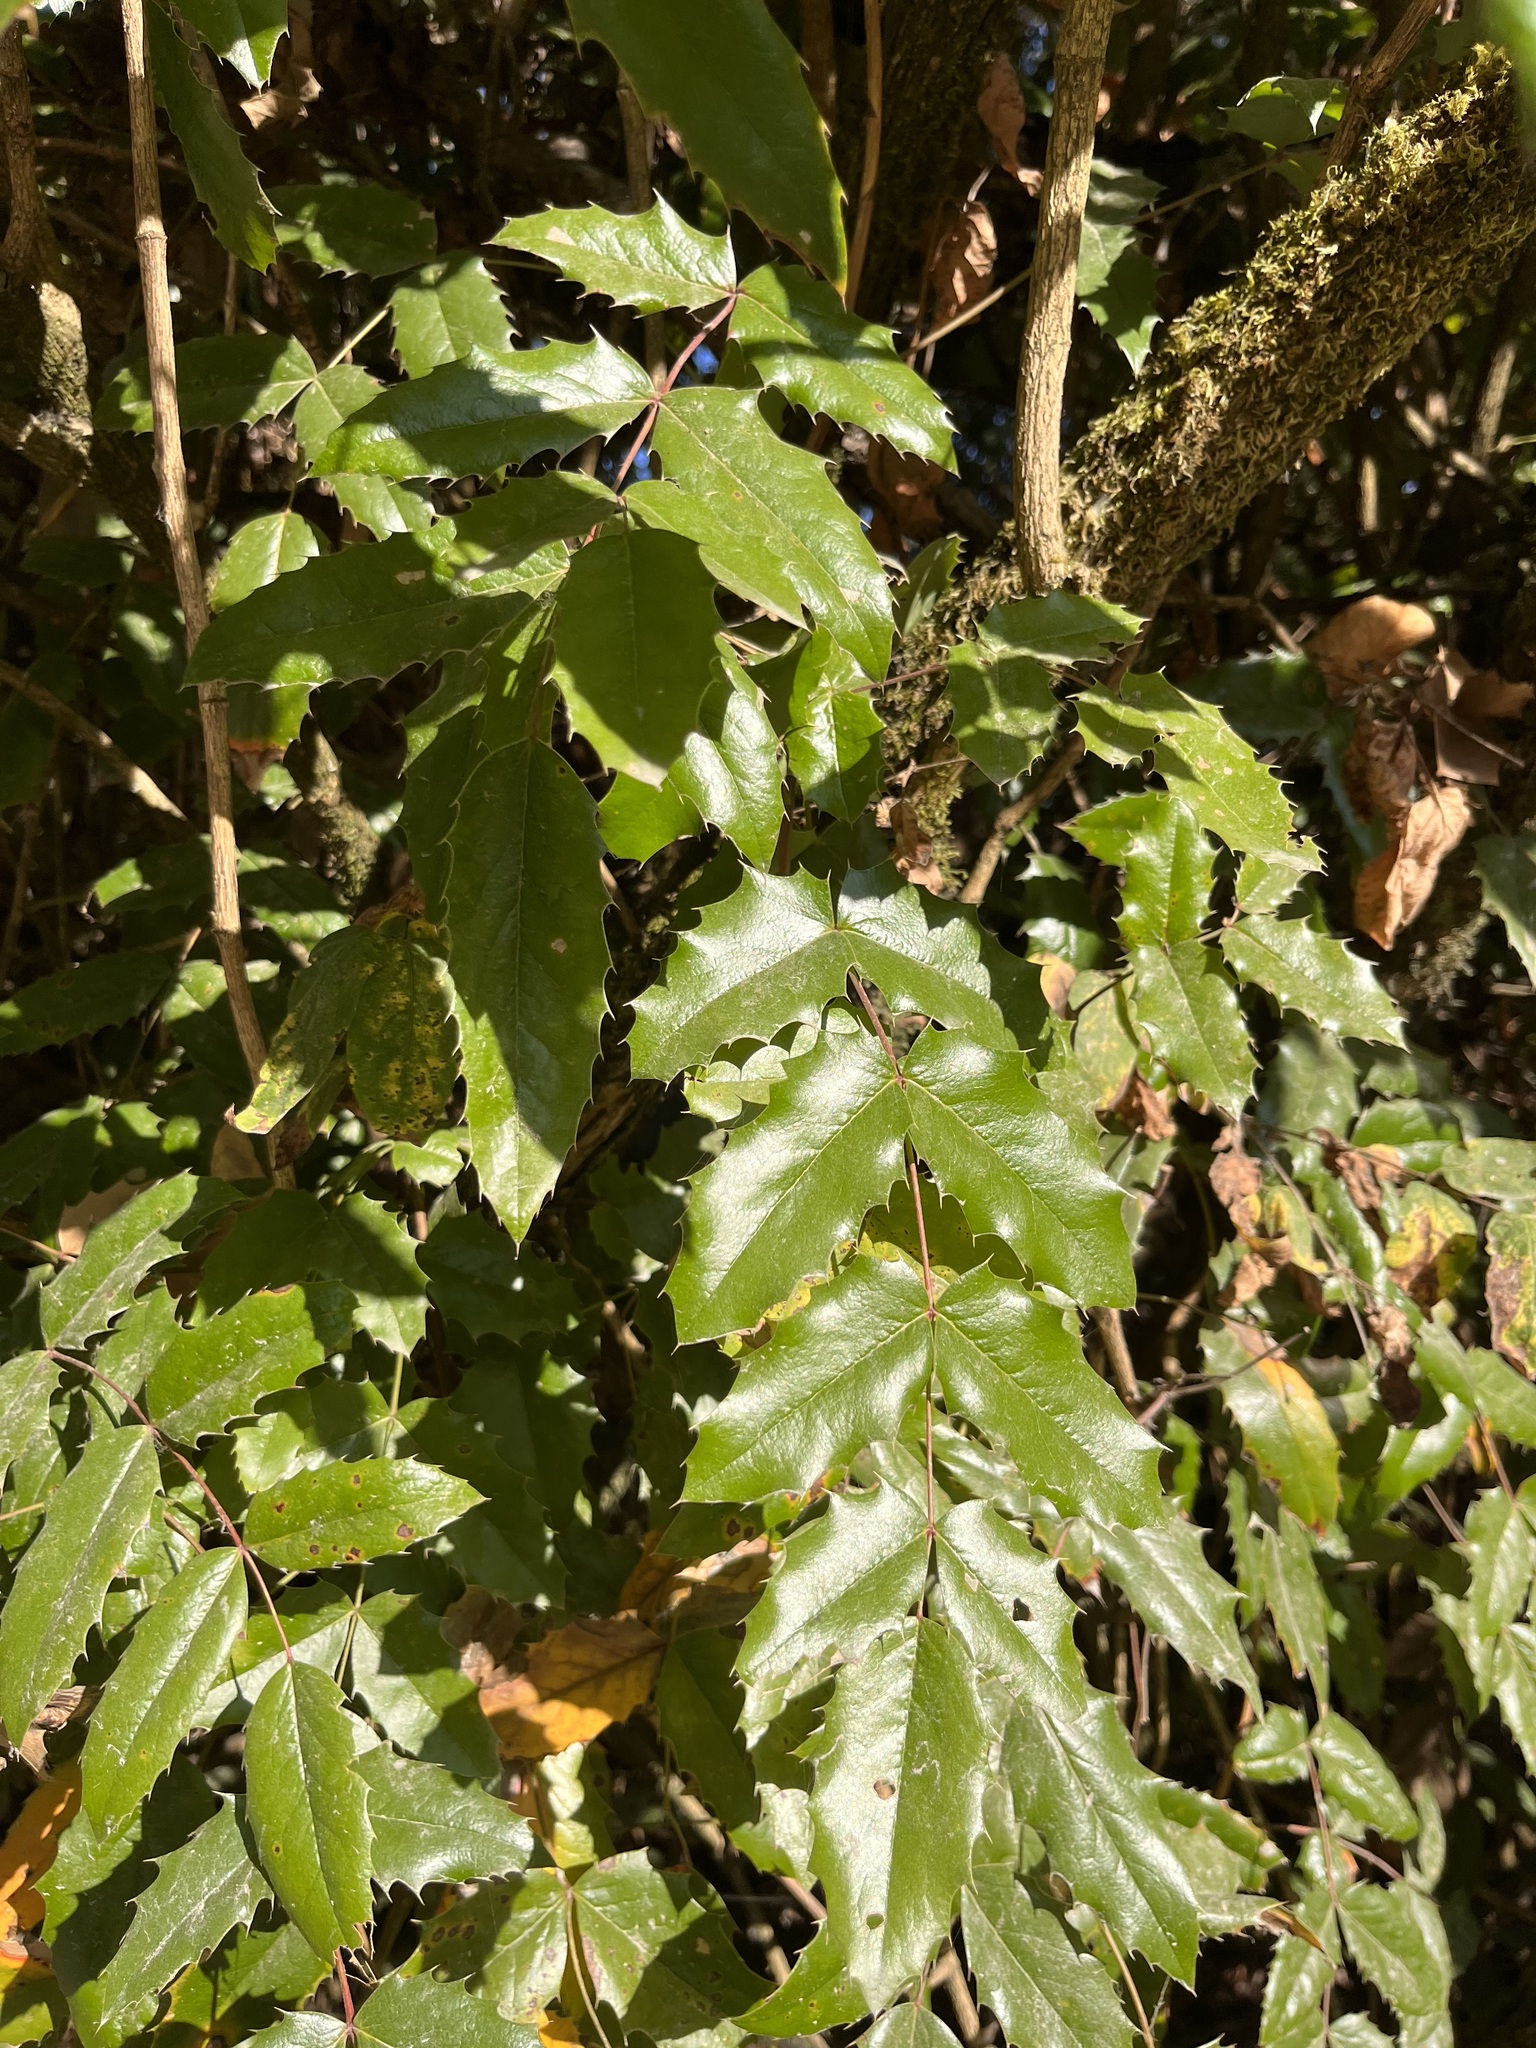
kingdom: Plantae
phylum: Tracheophyta
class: Magnoliopsida
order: Ranunculales
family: Berberidaceae
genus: Mahonia
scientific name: Mahonia aquifolium
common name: Oregon-grape
